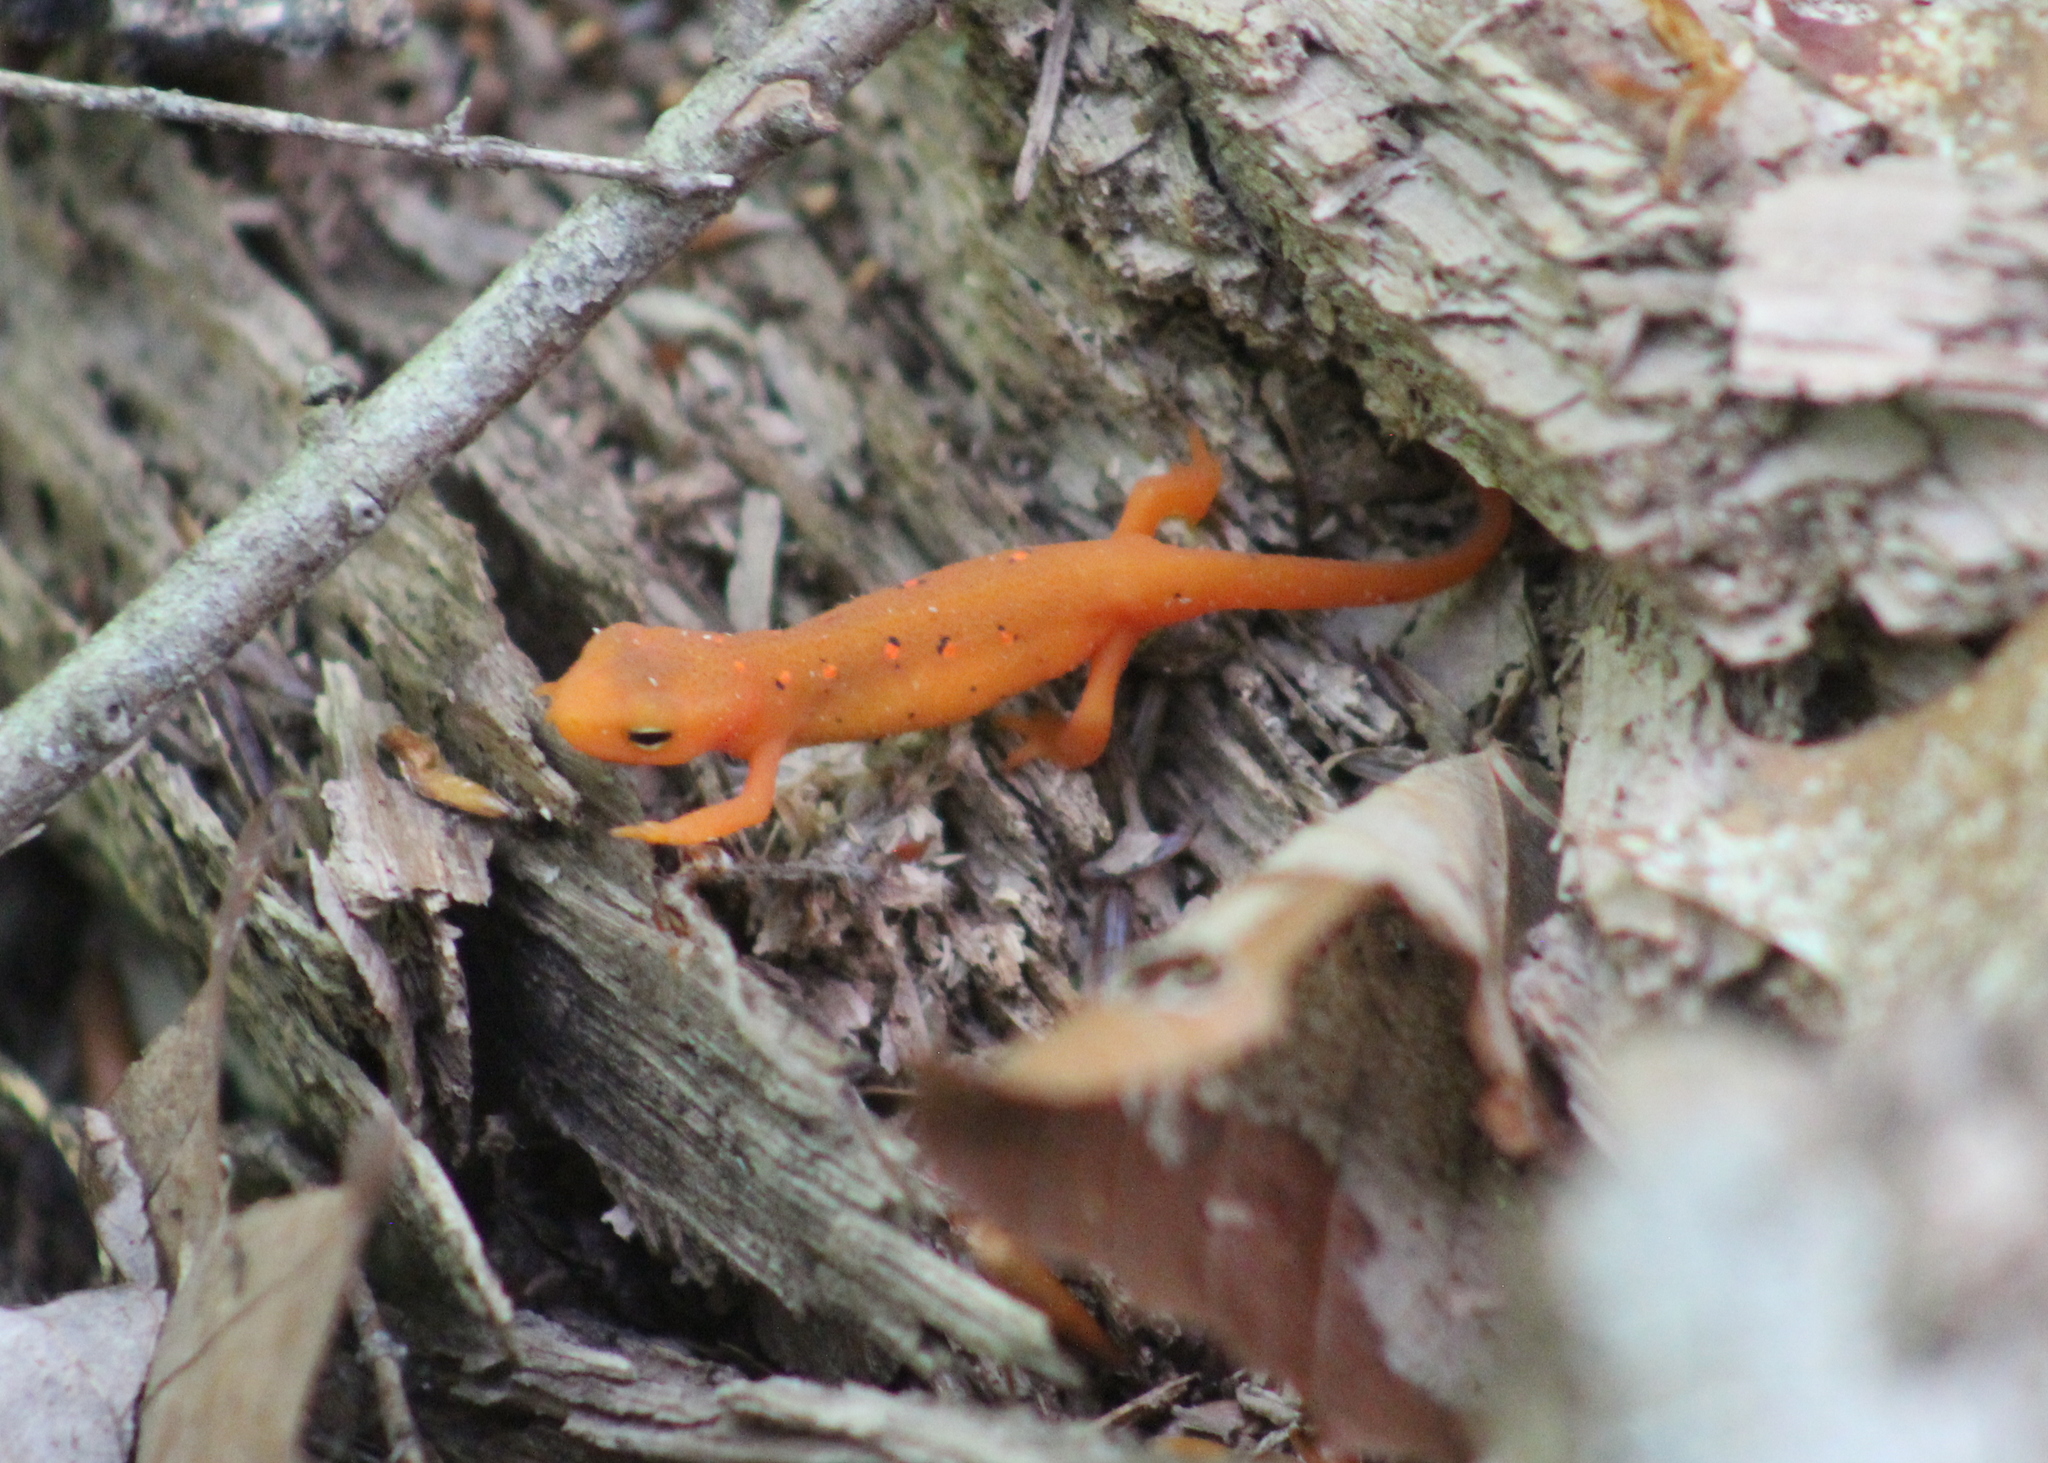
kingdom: Animalia
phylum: Chordata
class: Amphibia
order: Caudata
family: Salamandridae
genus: Notophthalmus
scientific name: Notophthalmus viridescens
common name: Eastern newt
